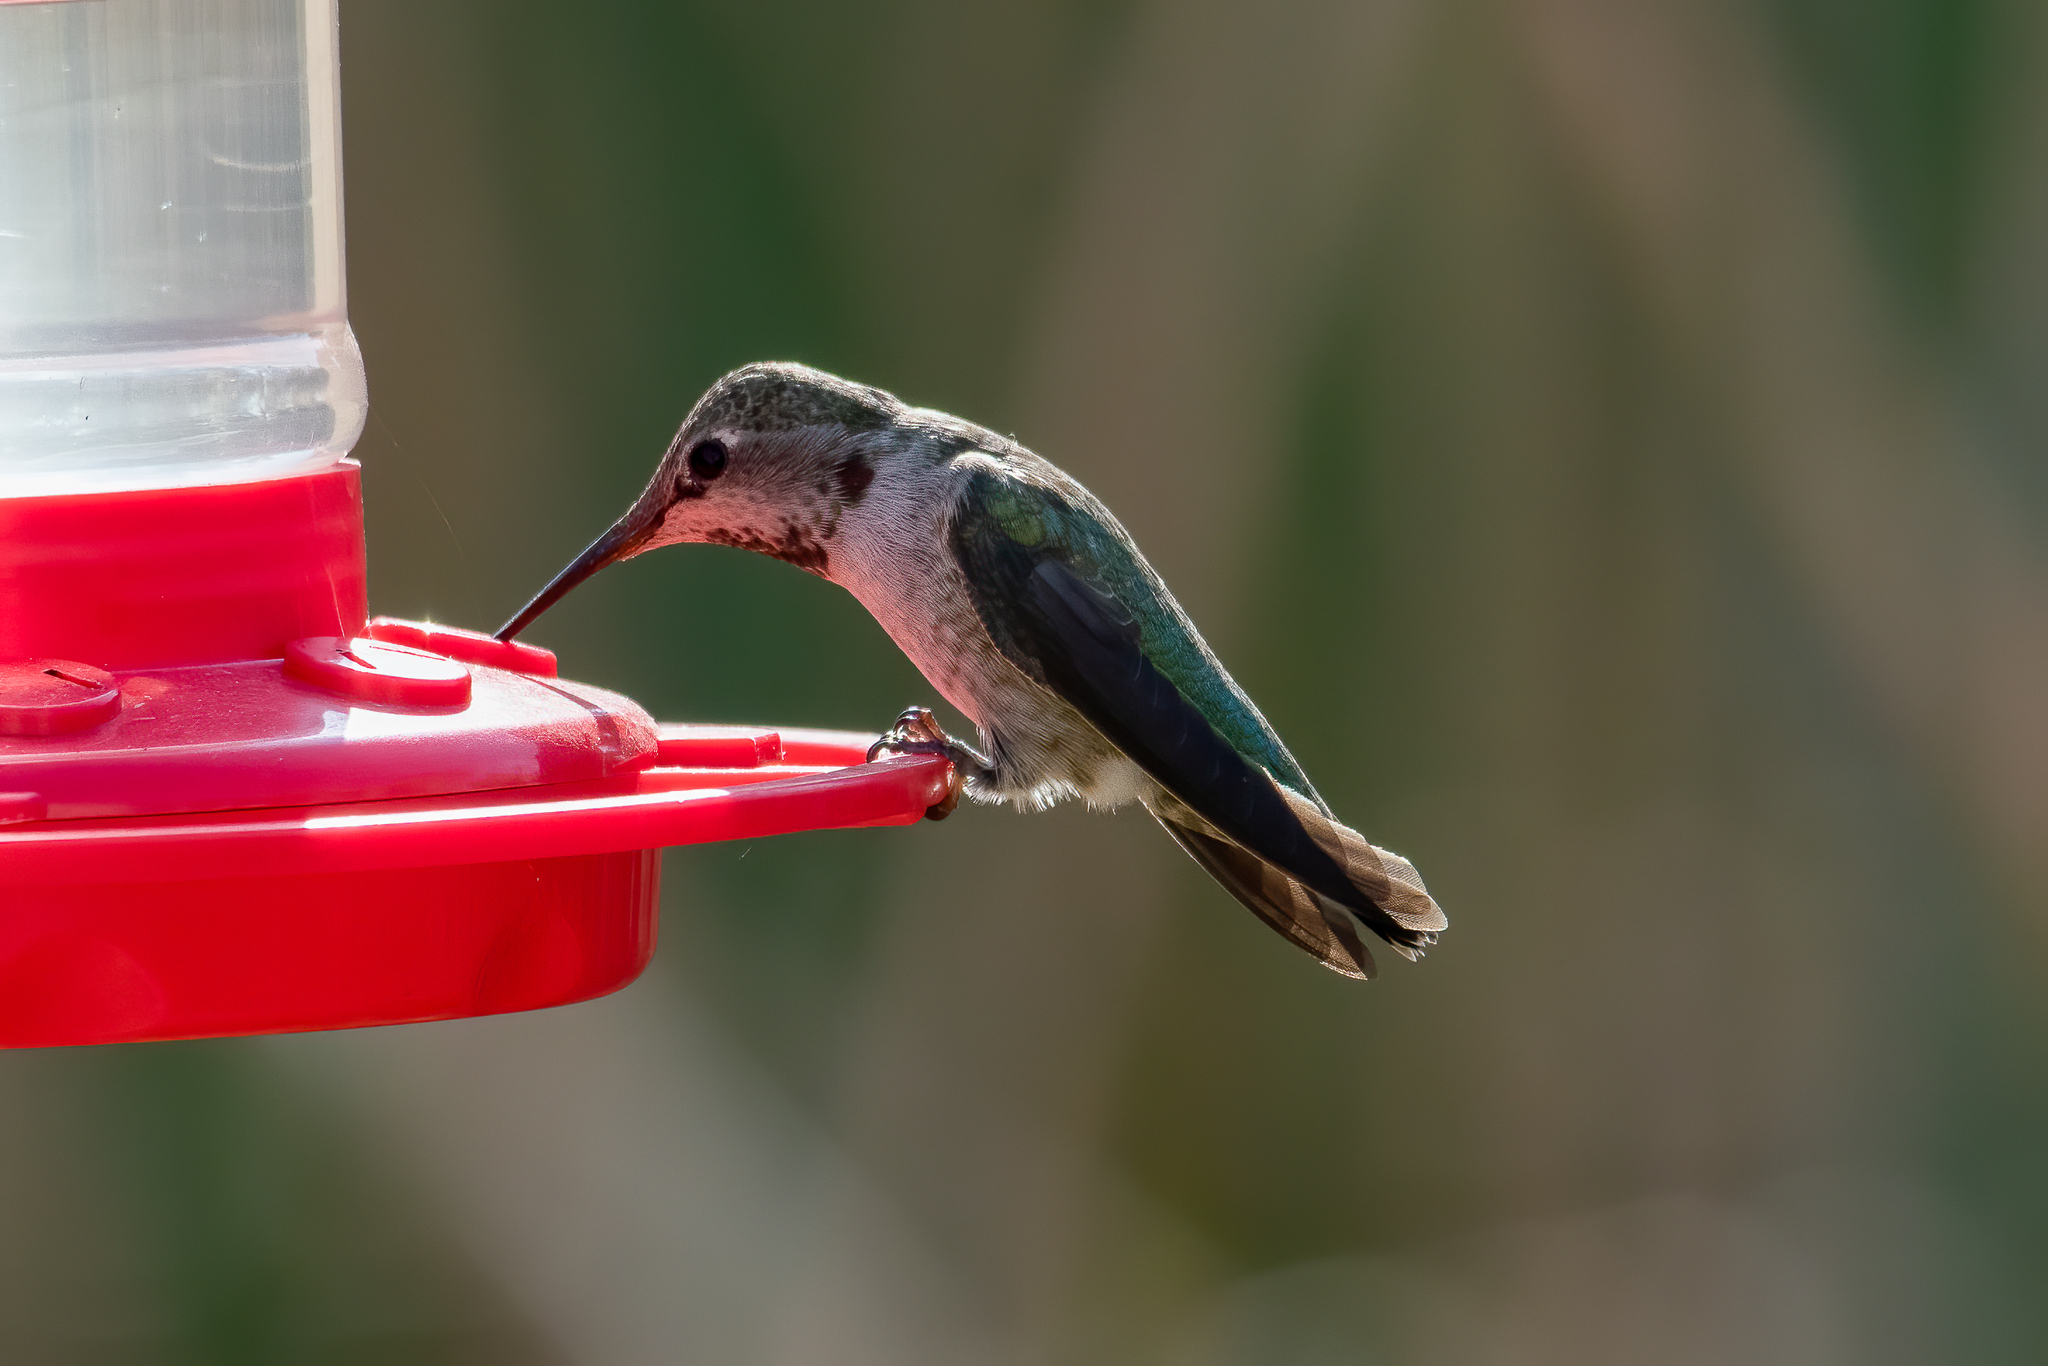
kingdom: Animalia
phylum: Chordata
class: Aves
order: Apodiformes
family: Trochilidae
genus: Calypte
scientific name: Calypte anna
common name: Anna's hummingbird
